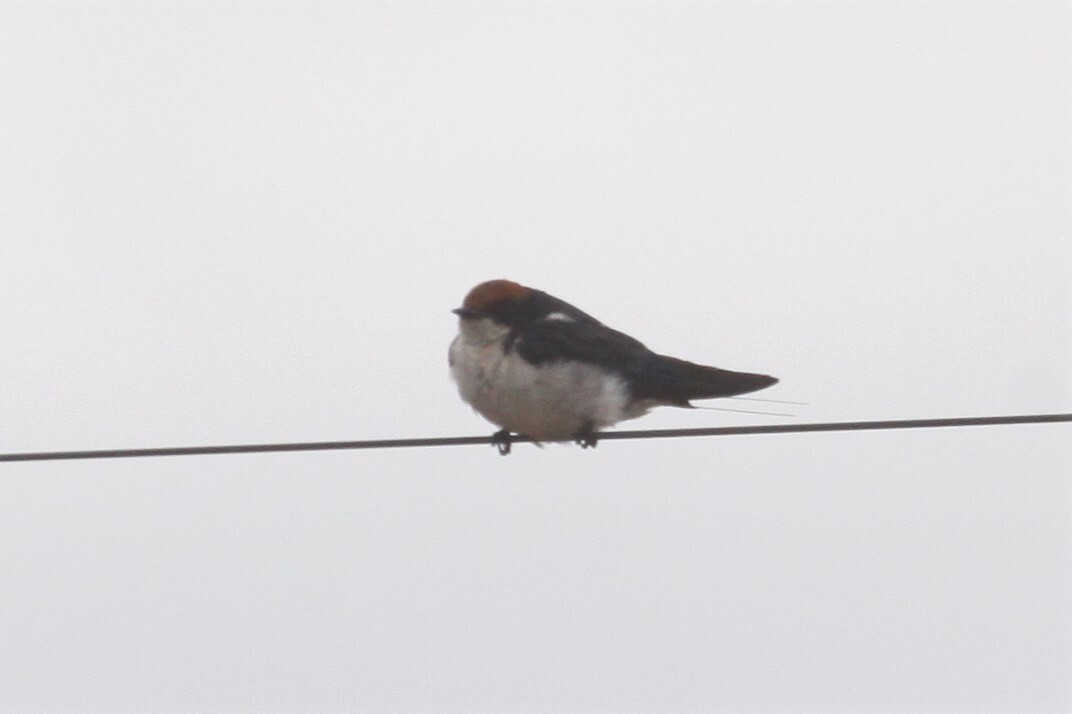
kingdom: Animalia
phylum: Chordata
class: Aves
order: Passeriformes
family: Hirundinidae
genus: Hirundo
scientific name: Hirundo smithii
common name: Wire-tailed swallow
